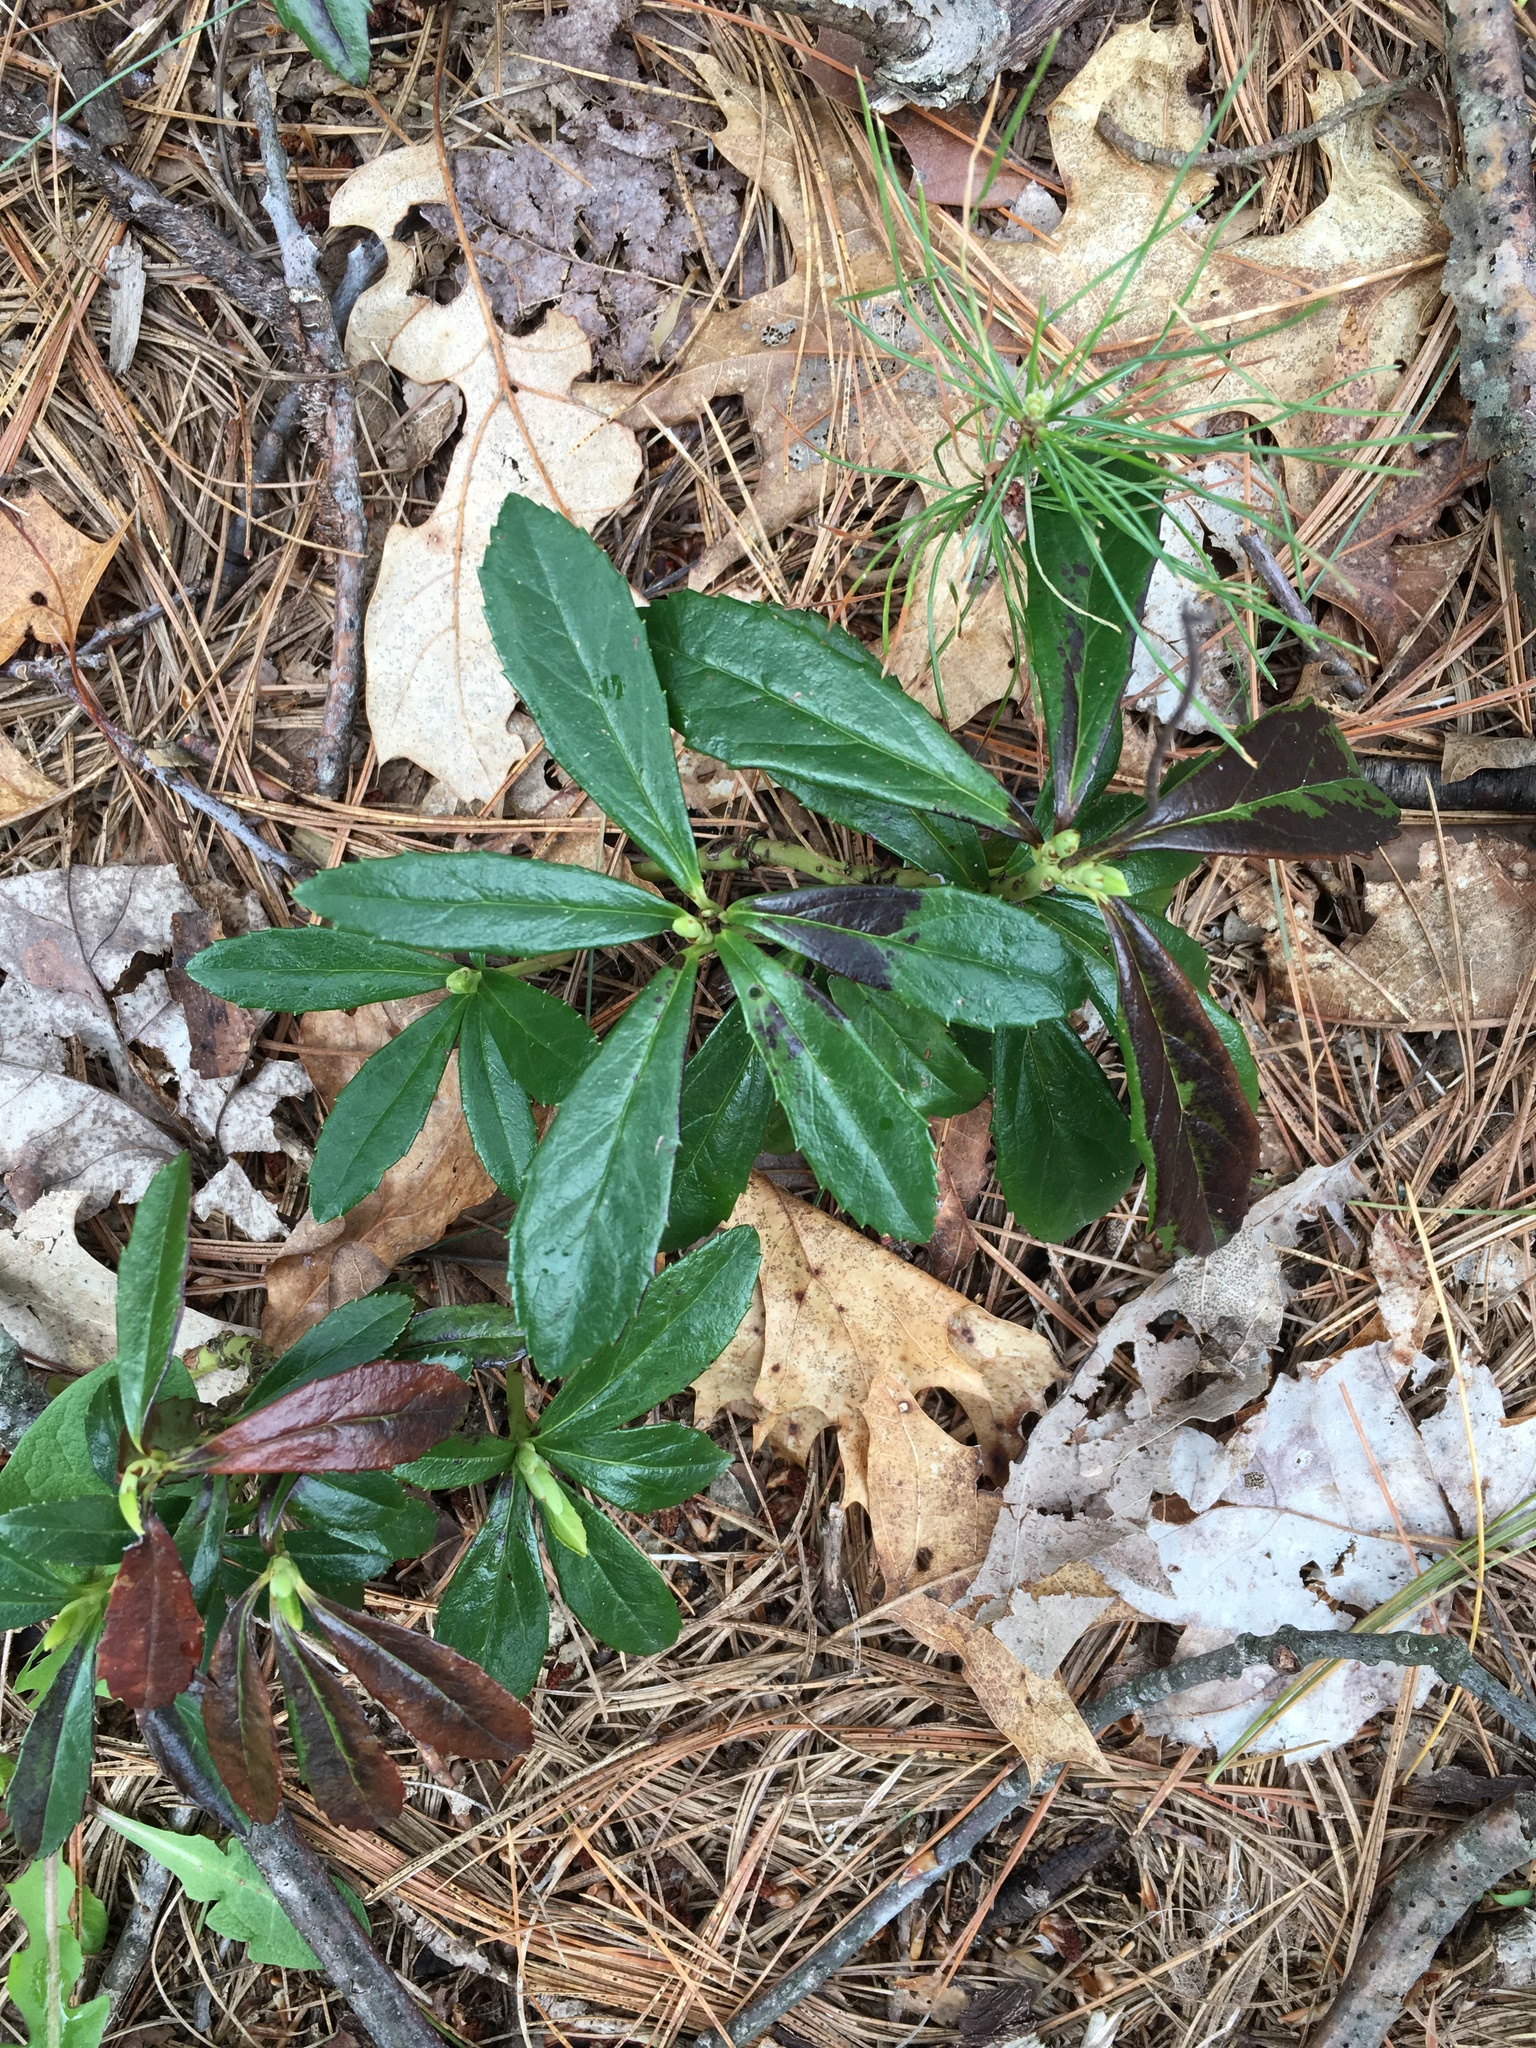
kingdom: Plantae
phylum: Tracheophyta
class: Magnoliopsida
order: Ericales
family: Ericaceae
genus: Chimaphila
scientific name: Chimaphila umbellata
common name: Pipsissewa
